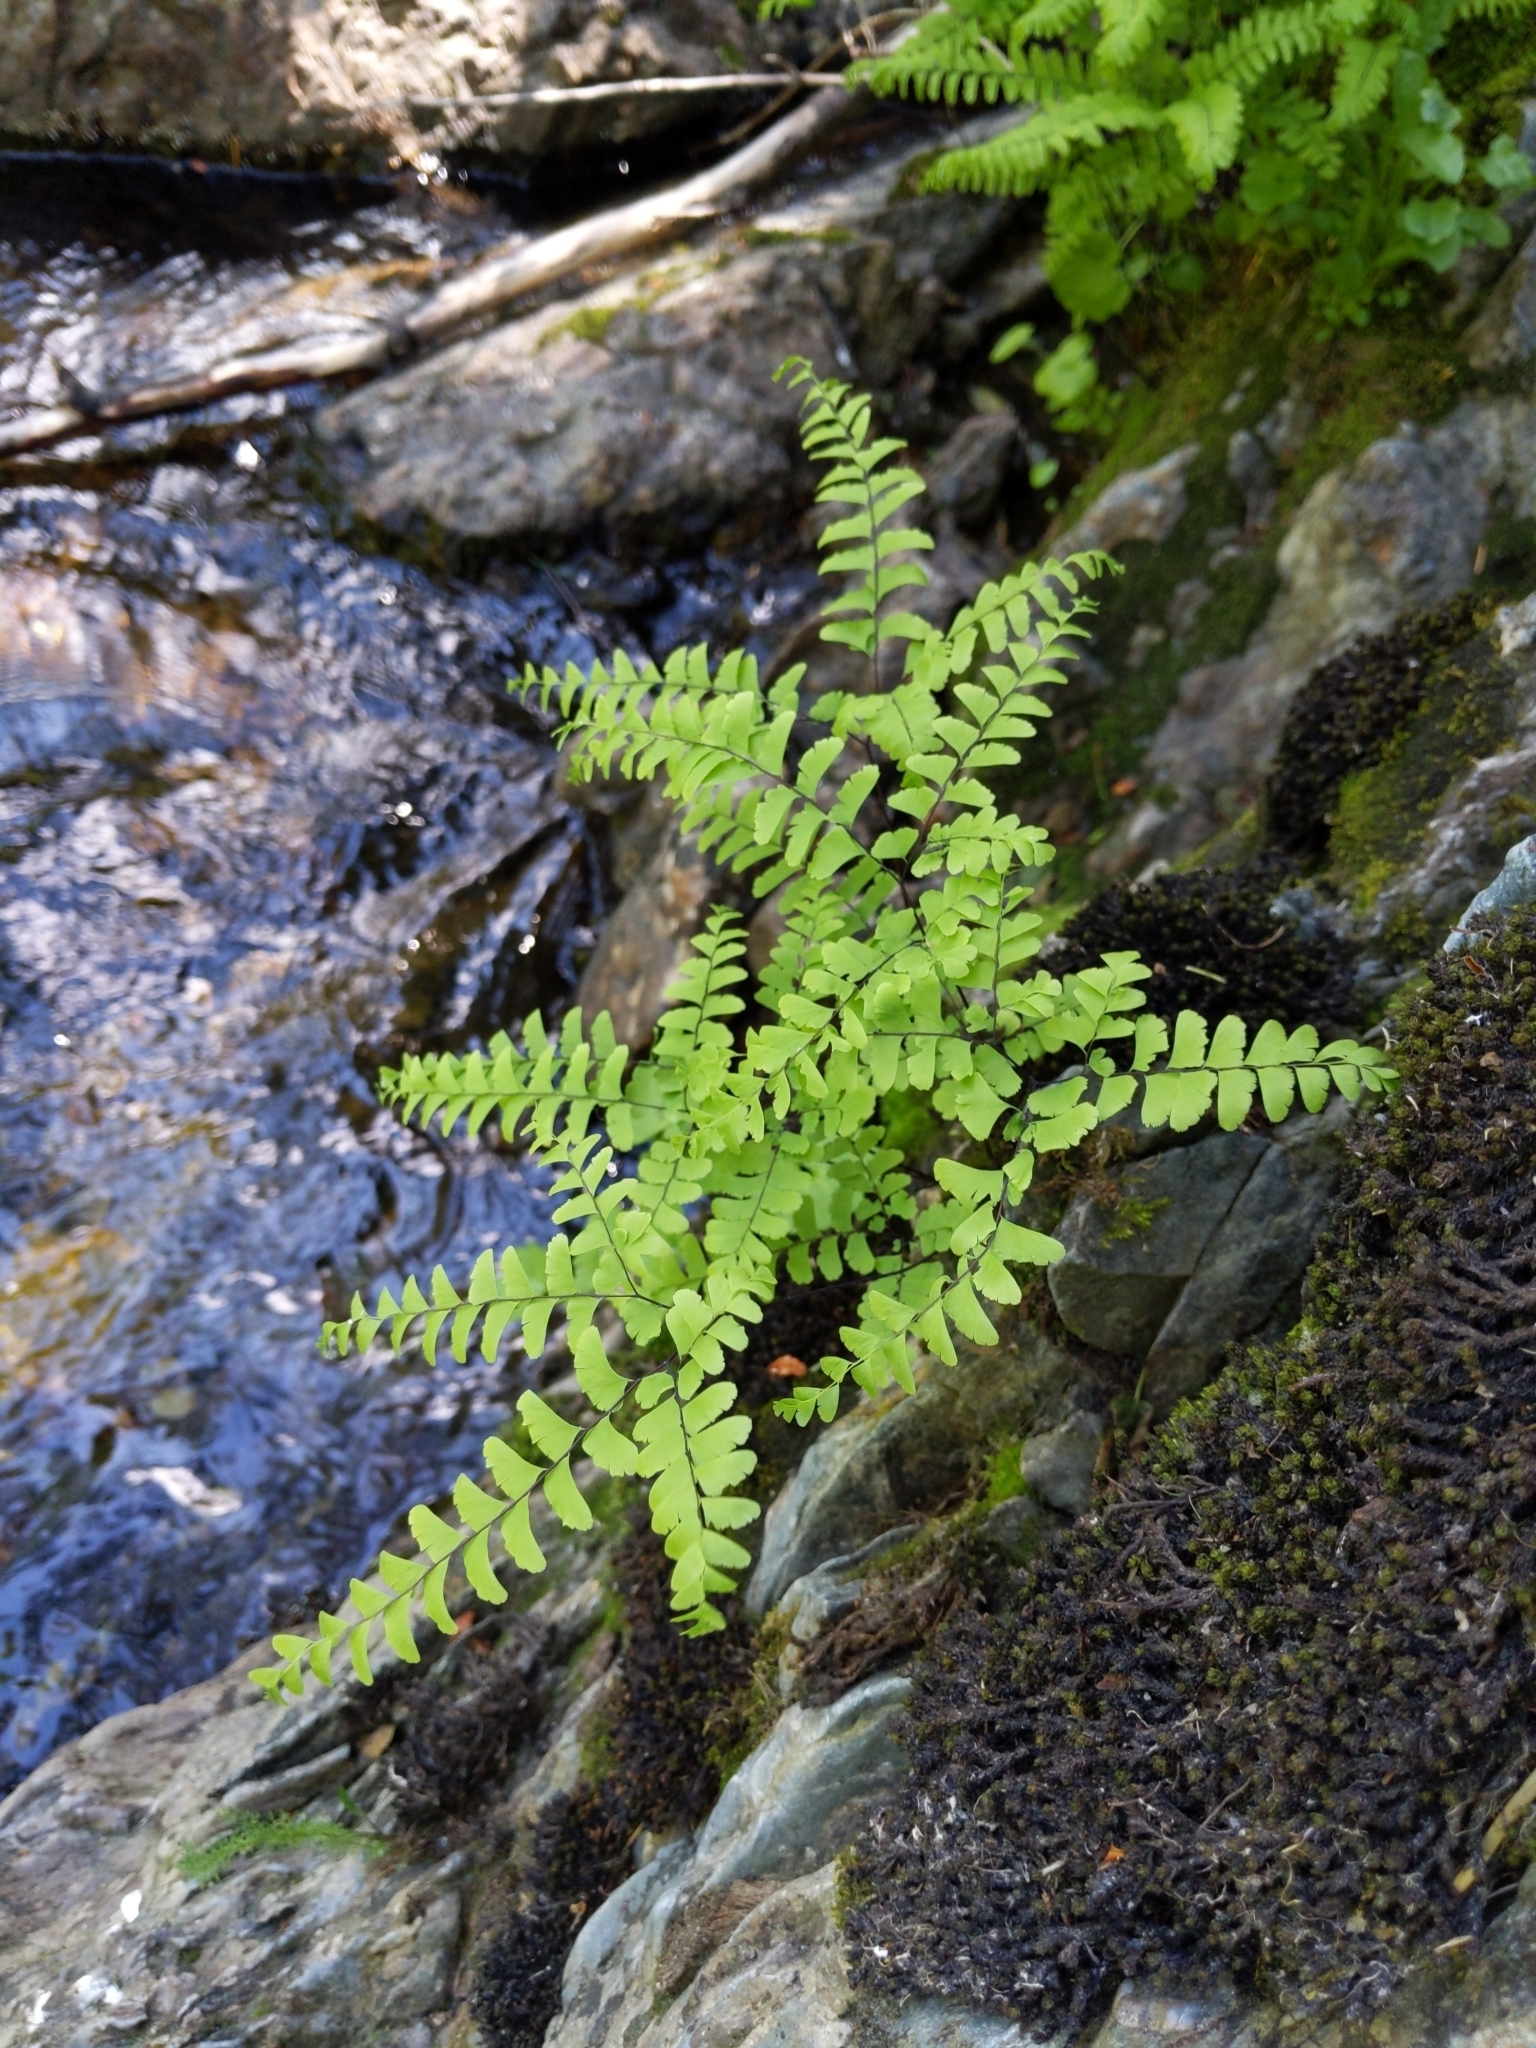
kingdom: Plantae
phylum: Tracheophyta
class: Polypodiopsida
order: Polypodiales
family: Pteridaceae
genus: Adiantum
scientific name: Adiantum aleuticum
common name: Aleutian maidenhair fern
